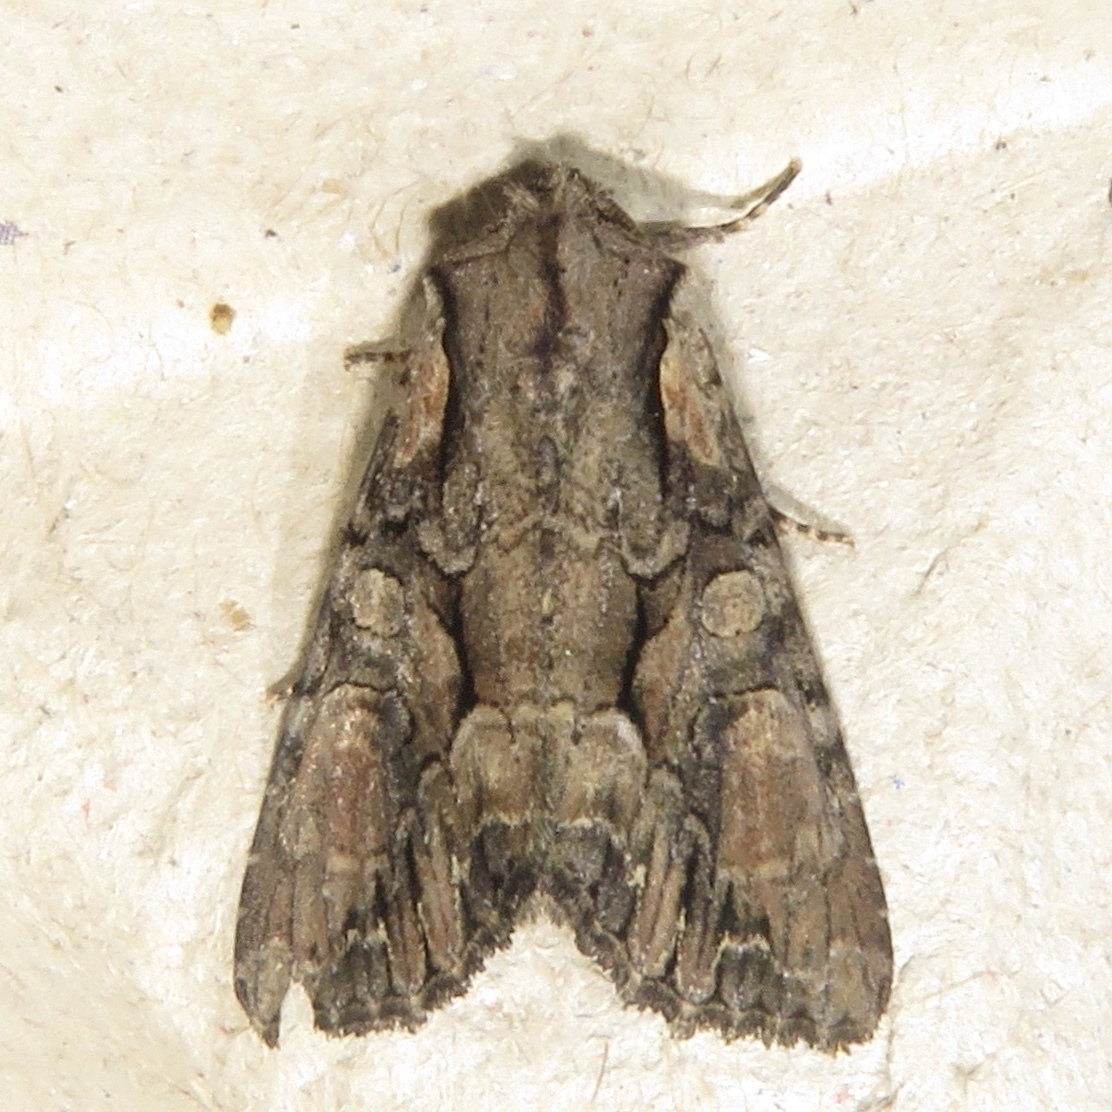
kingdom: Animalia
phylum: Arthropoda
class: Insecta
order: Lepidoptera
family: Noctuidae
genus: Lacanobia
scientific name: Lacanobia subjuncta
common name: Speckled cutworm moth
